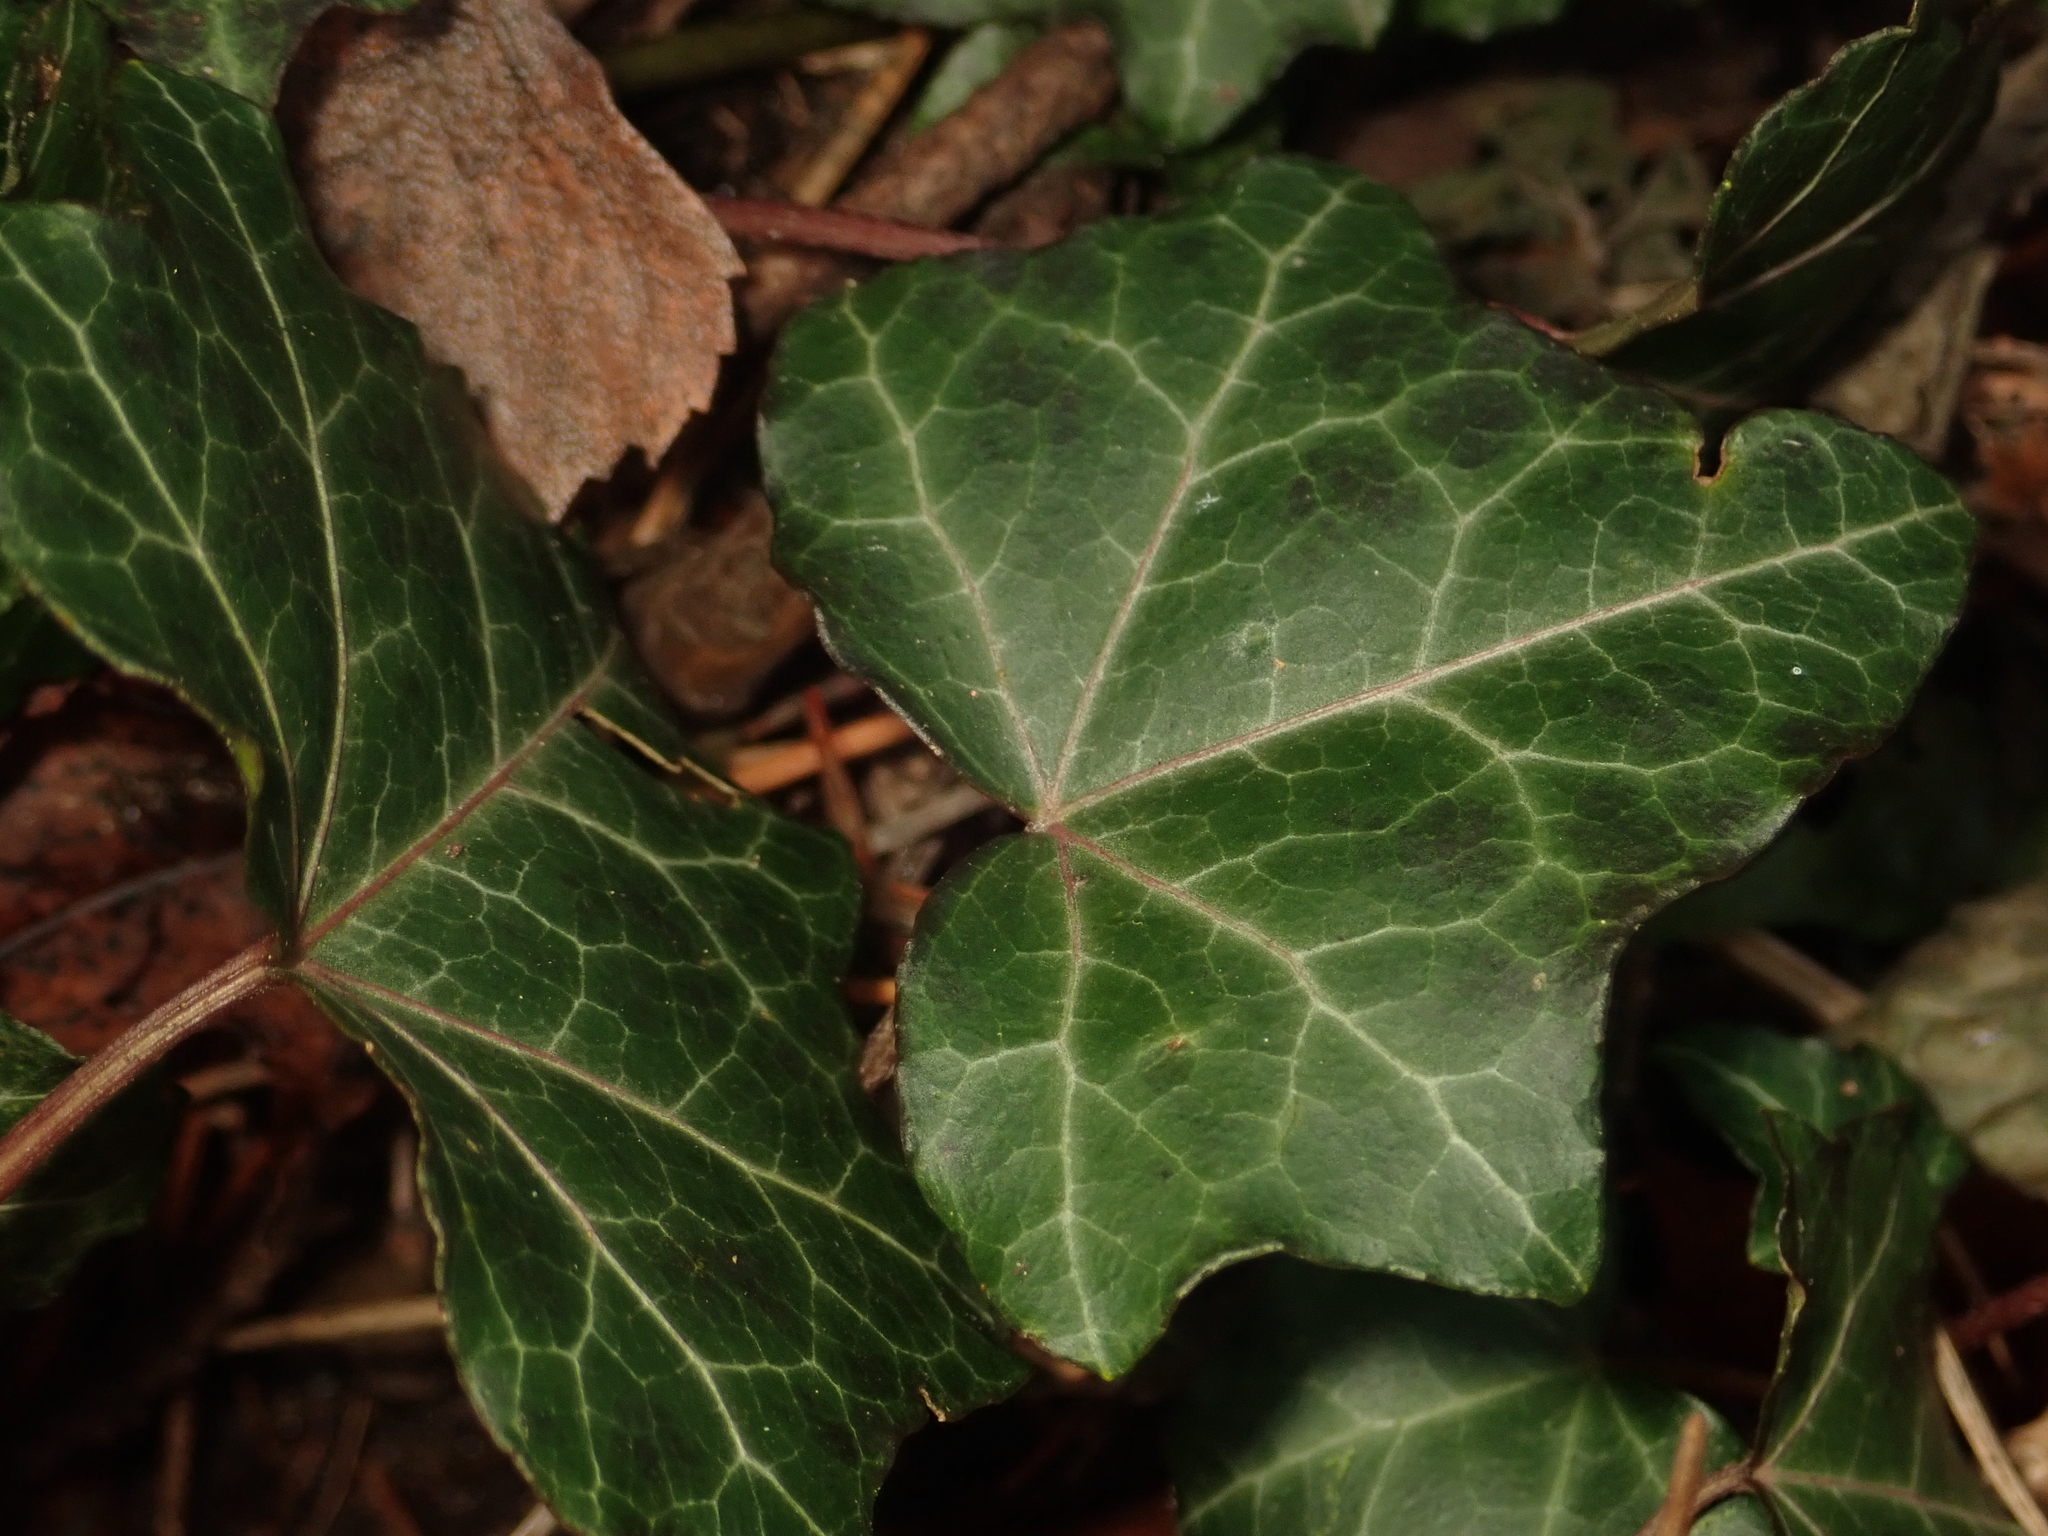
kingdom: Plantae
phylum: Tracheophyta
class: Magnoliopsida
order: Apiales
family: Araliaceae
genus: Hedera
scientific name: Hedera helix
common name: Ivy
